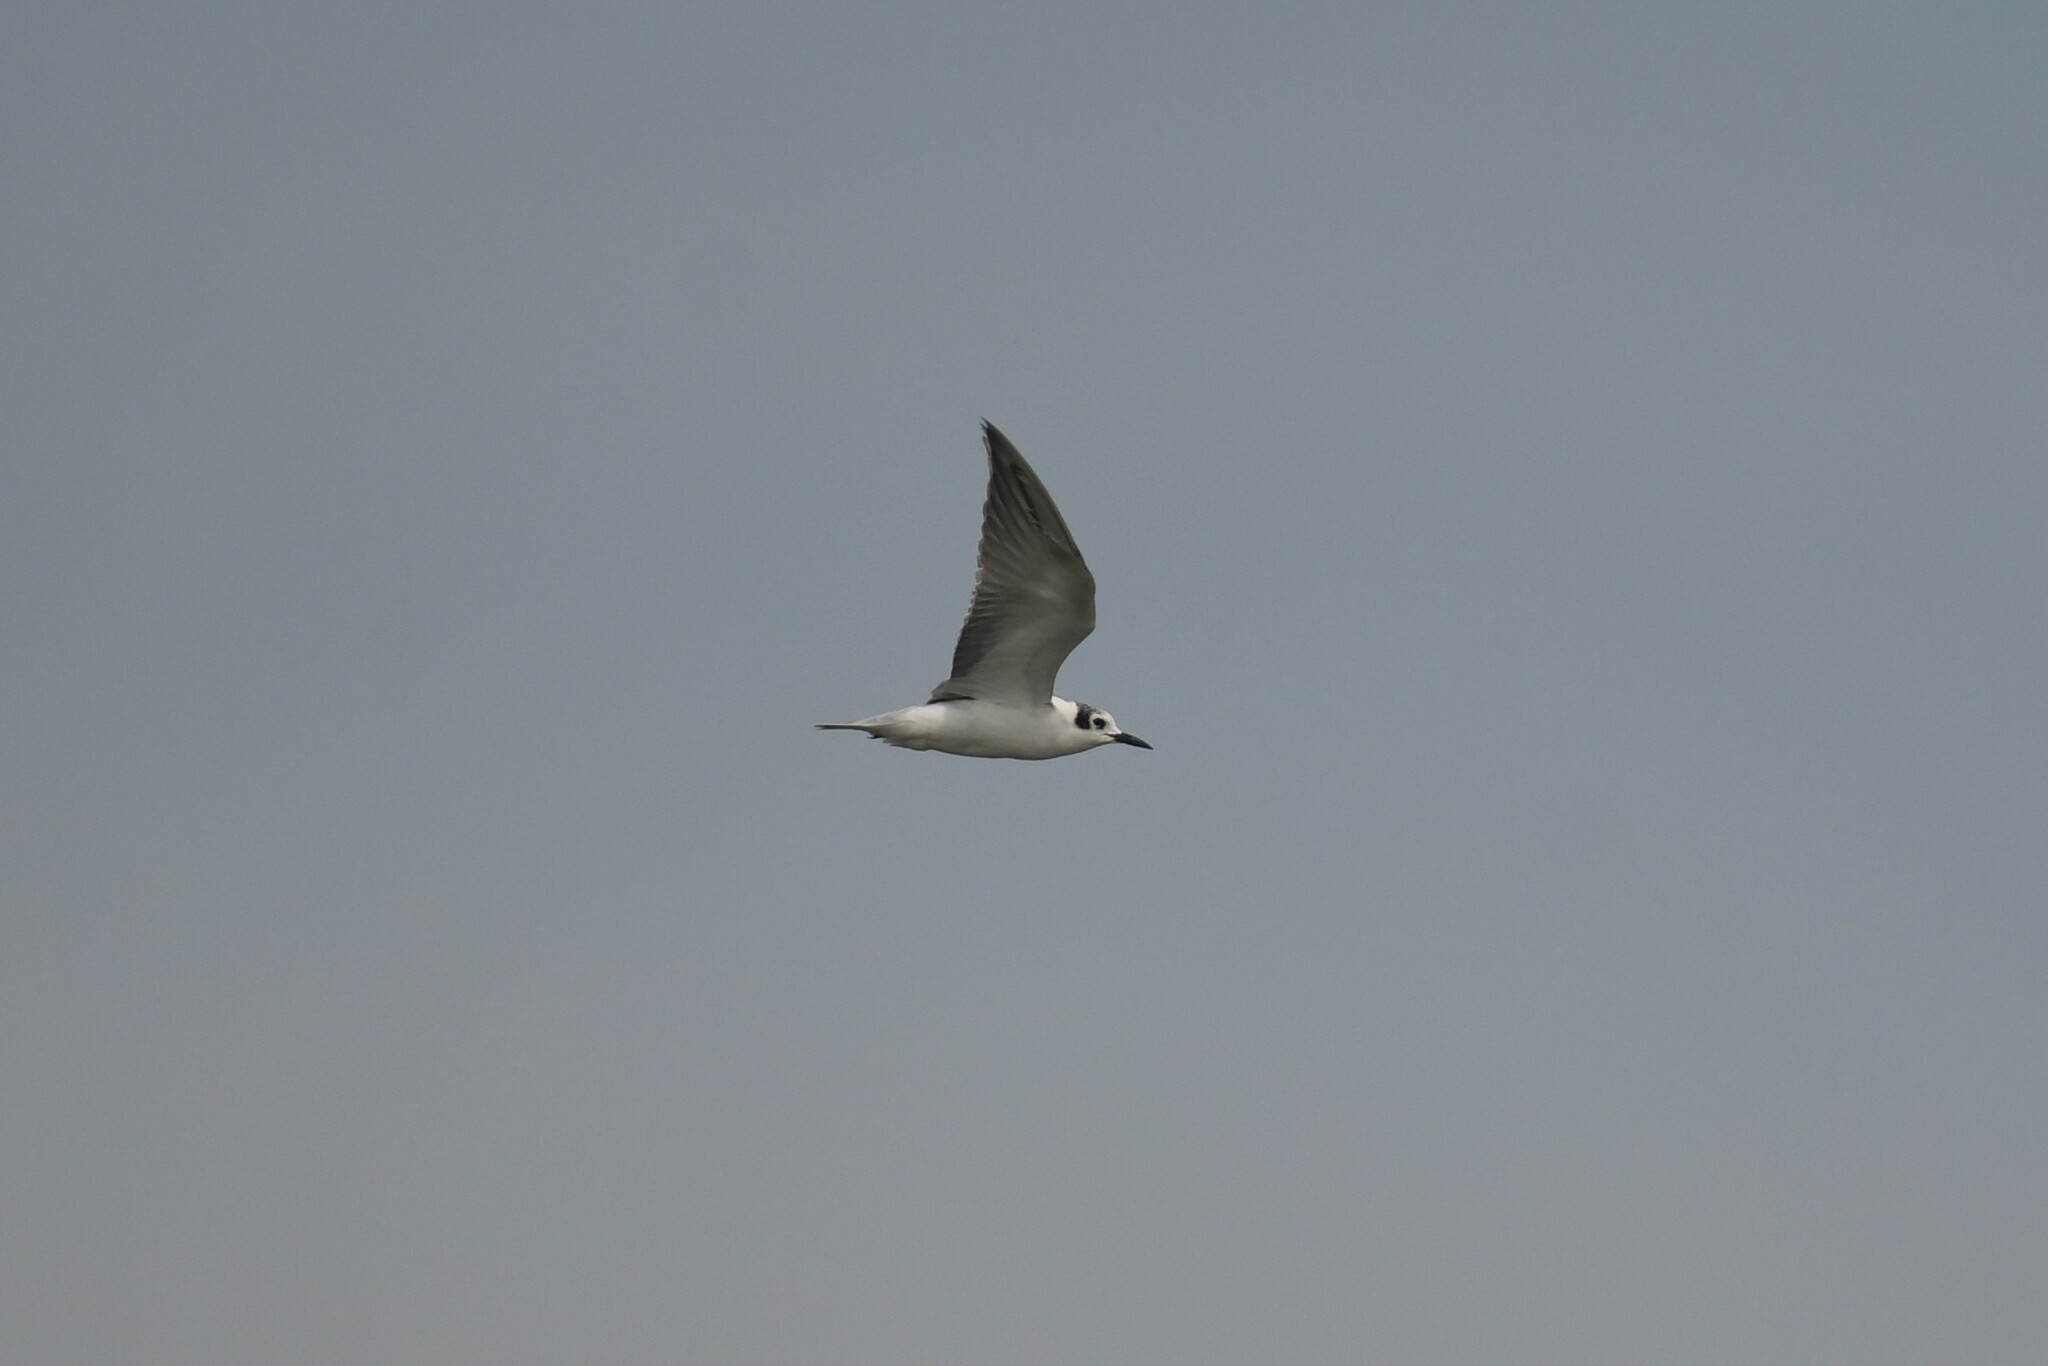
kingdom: Animalia
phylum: Chordata
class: Aves
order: Charadriiformes
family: Laridae
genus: Chlidonias
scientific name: Chlidonias leucopterus
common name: White-winged tern
